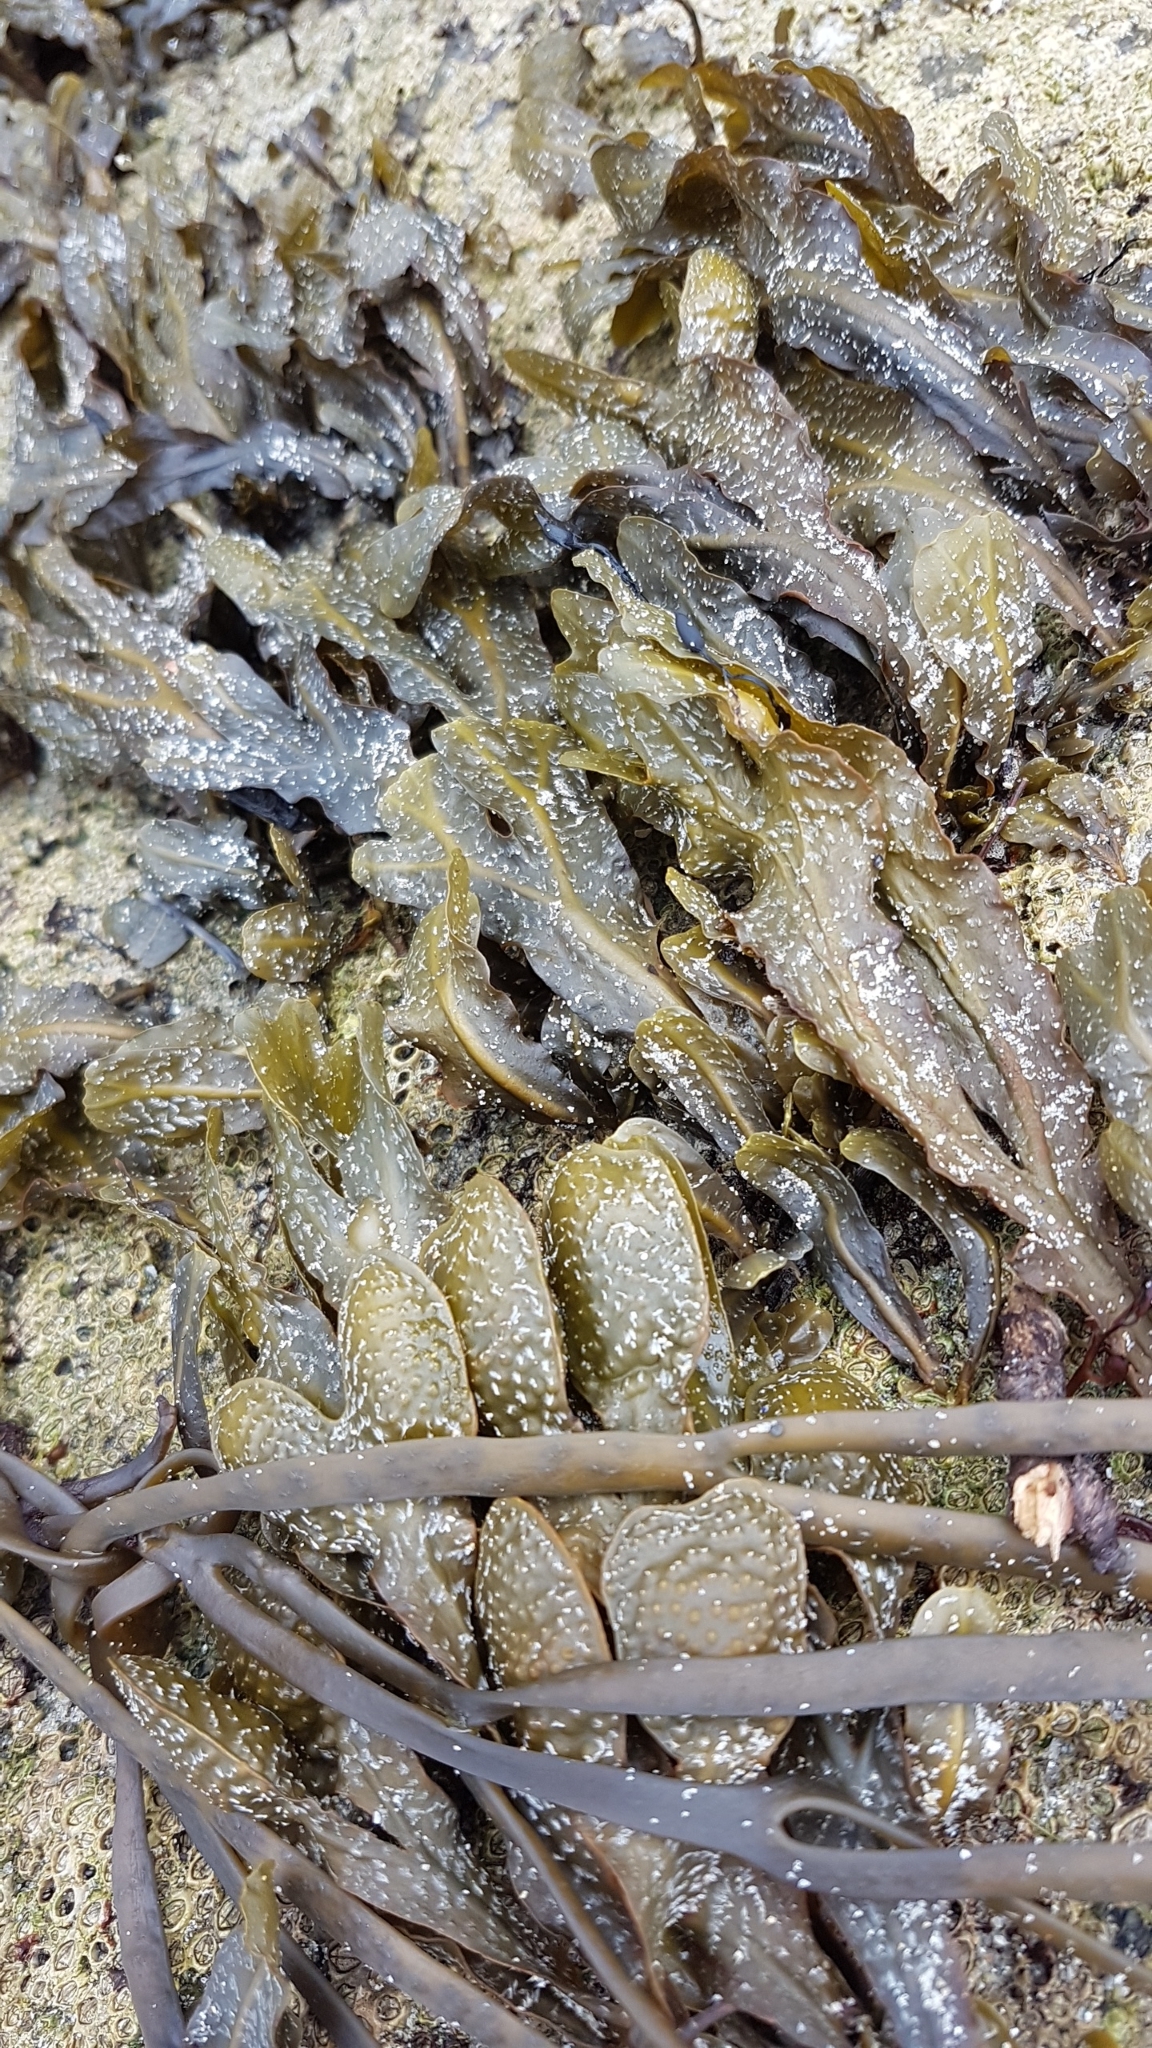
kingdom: Chromista
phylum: Ochrophyta
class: Phaeophyceae
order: Fucales
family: Fucaceae
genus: Fucus
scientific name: Fucus spiralis
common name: Spiral wrack
